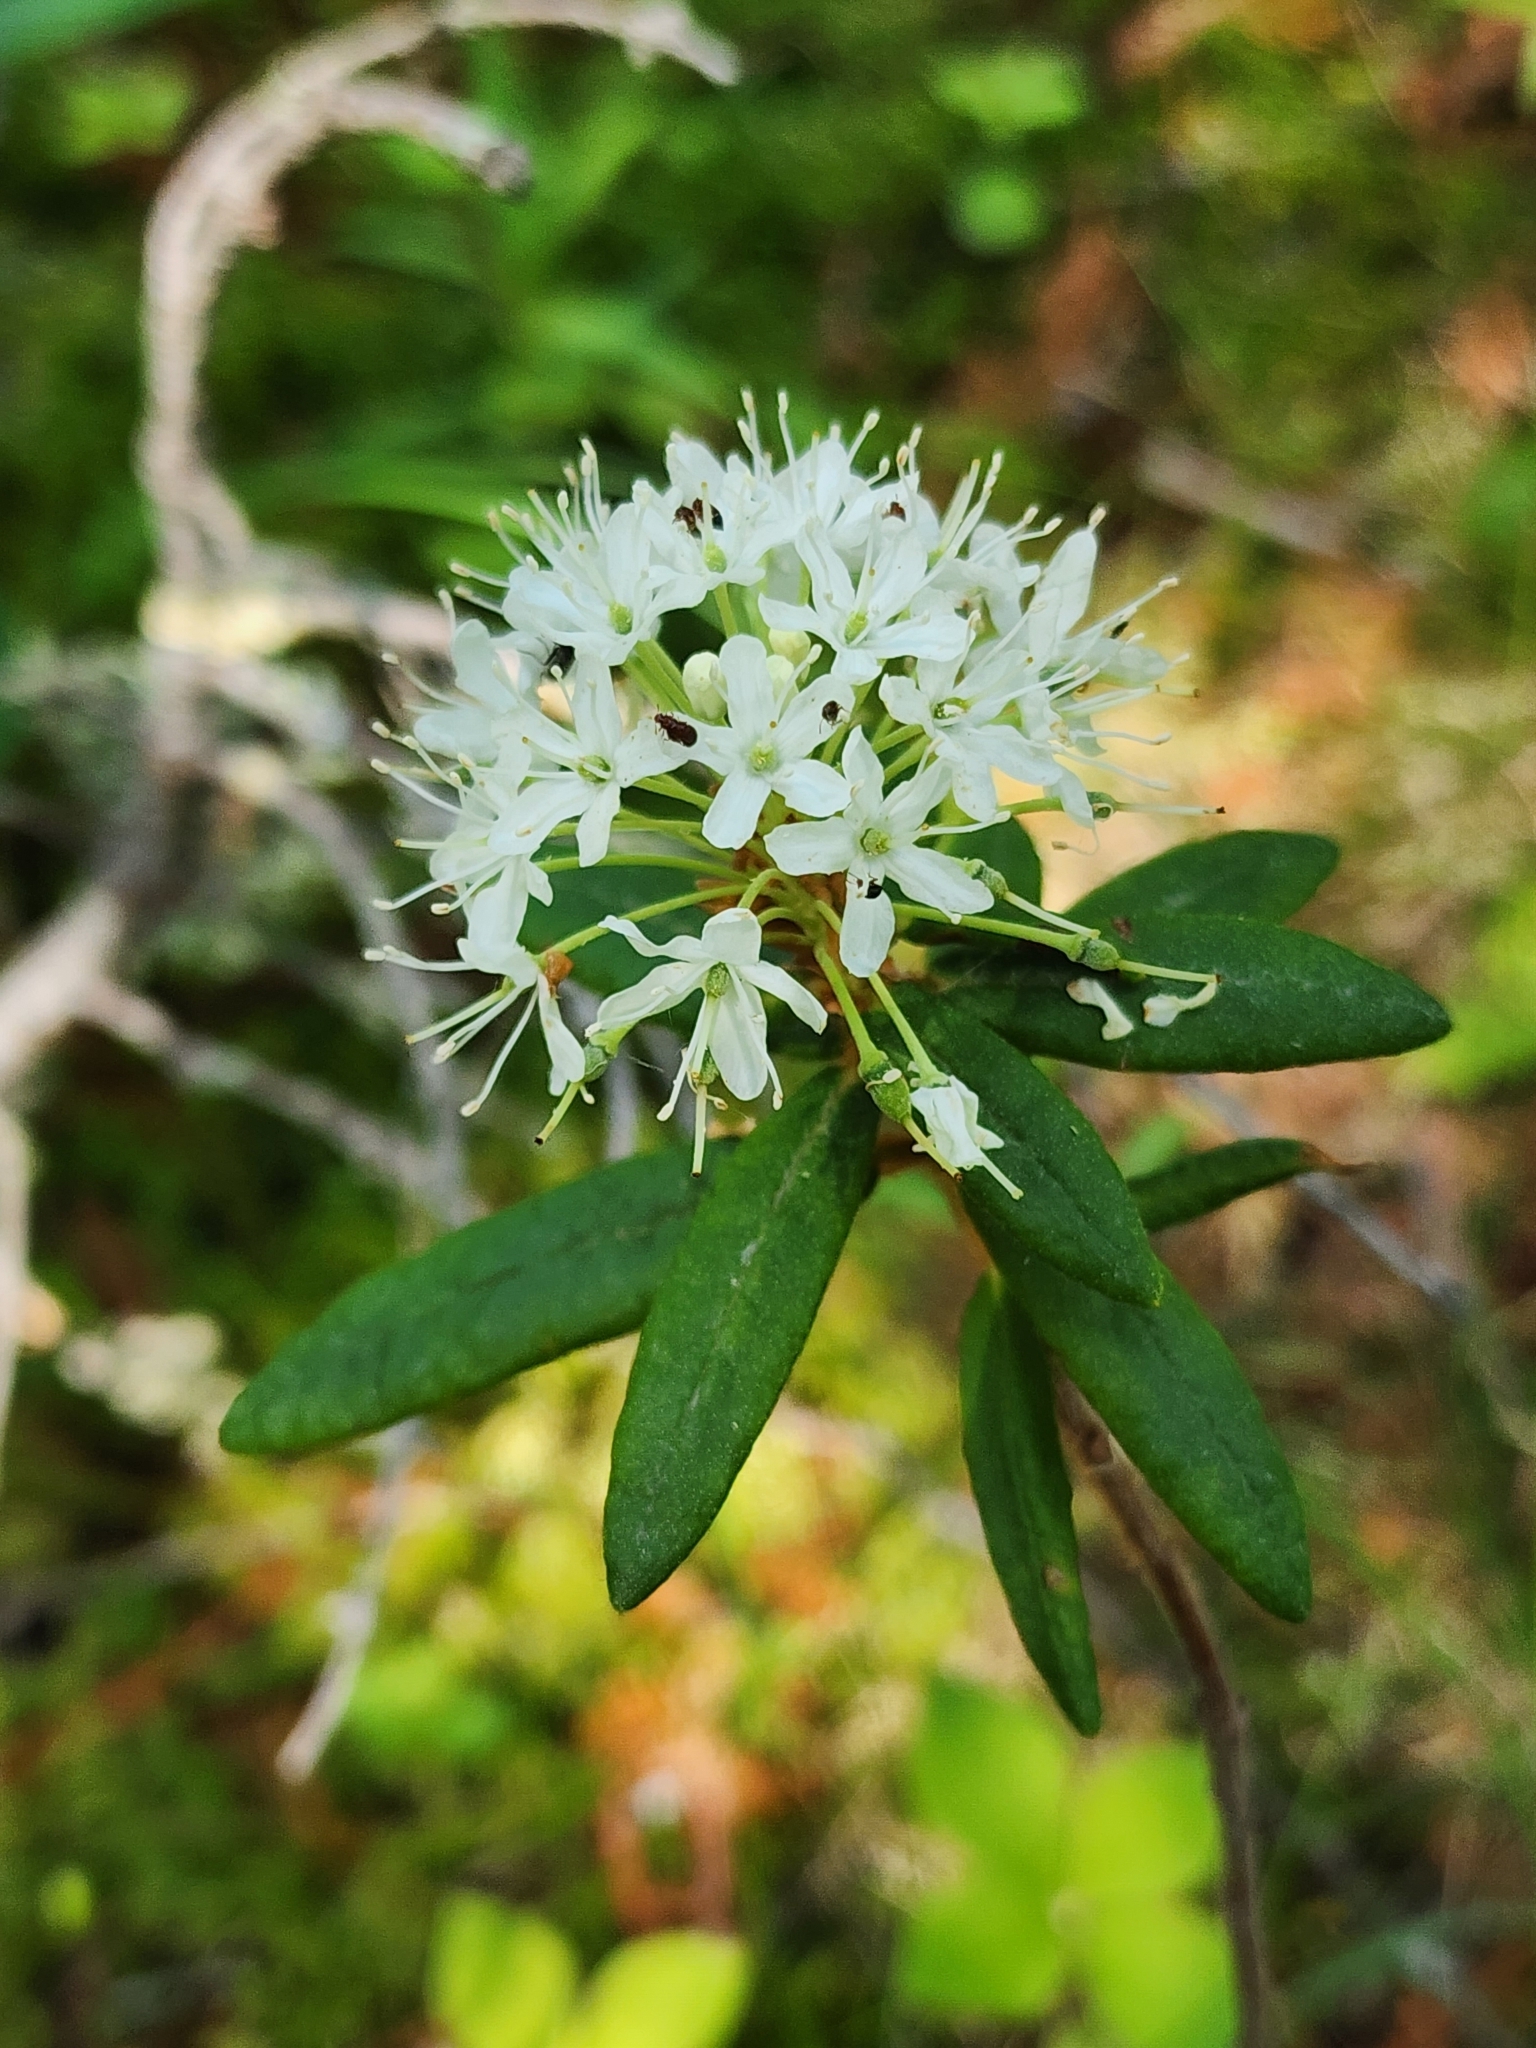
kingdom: Plantae
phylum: Tracheophyta
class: Magnoliopsida
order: Ericales
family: Ericaceae
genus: Rhododendron
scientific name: Rhododendron groenlandicum
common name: Bog labrador tea
